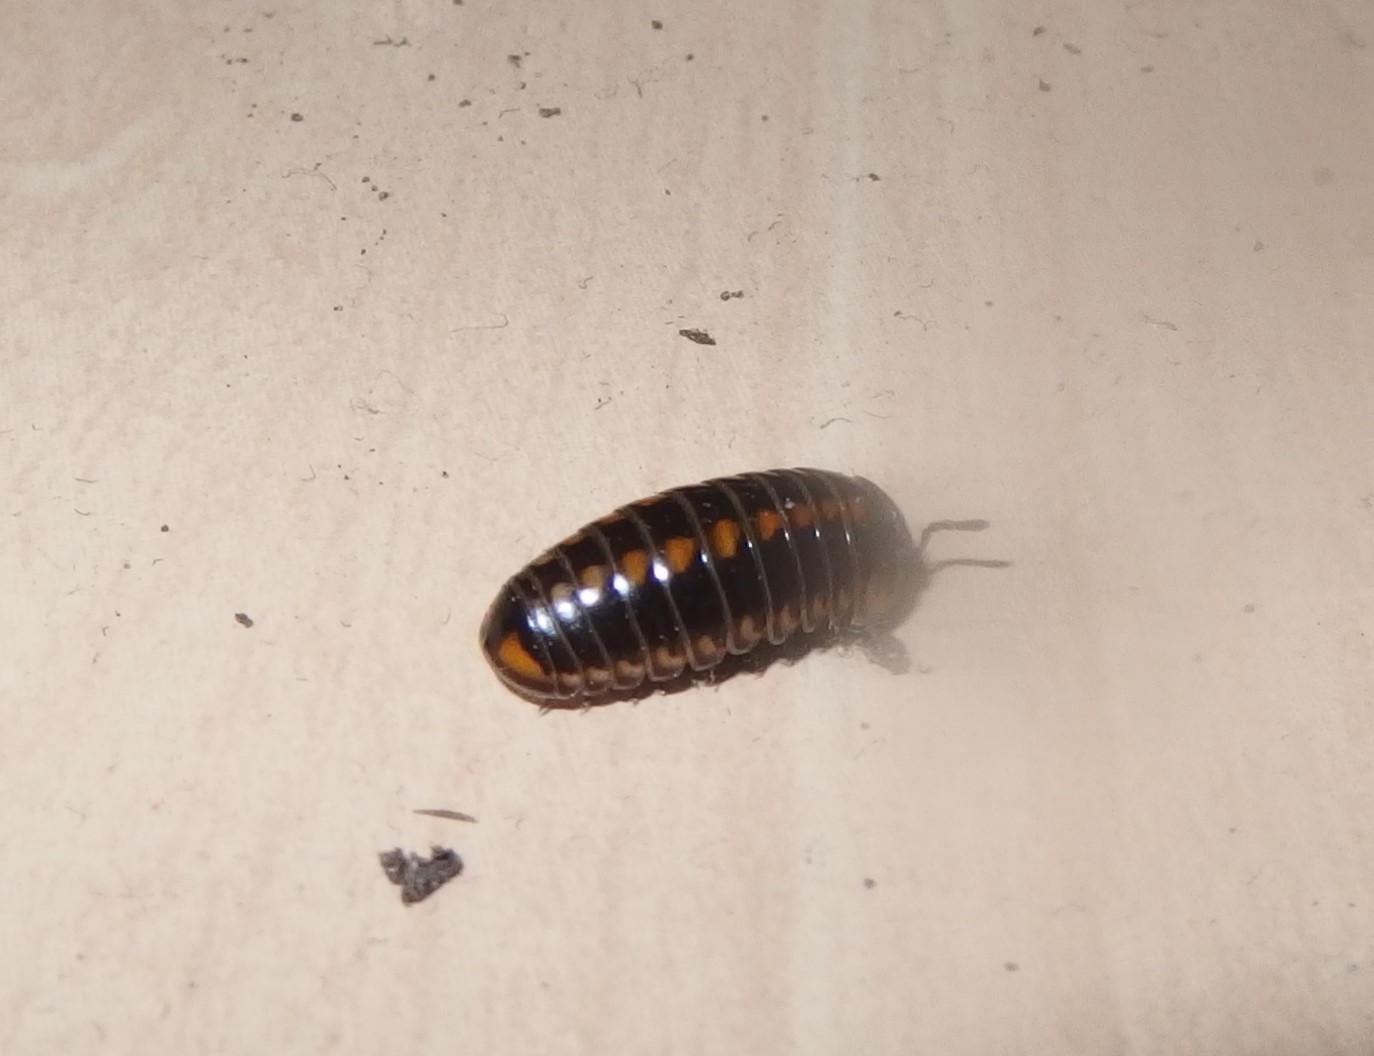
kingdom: Animalia
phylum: Arthropoda
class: Diplopoda
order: Glomerida
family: Glomeridae
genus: Glomeris
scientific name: Glomeris helvetica
